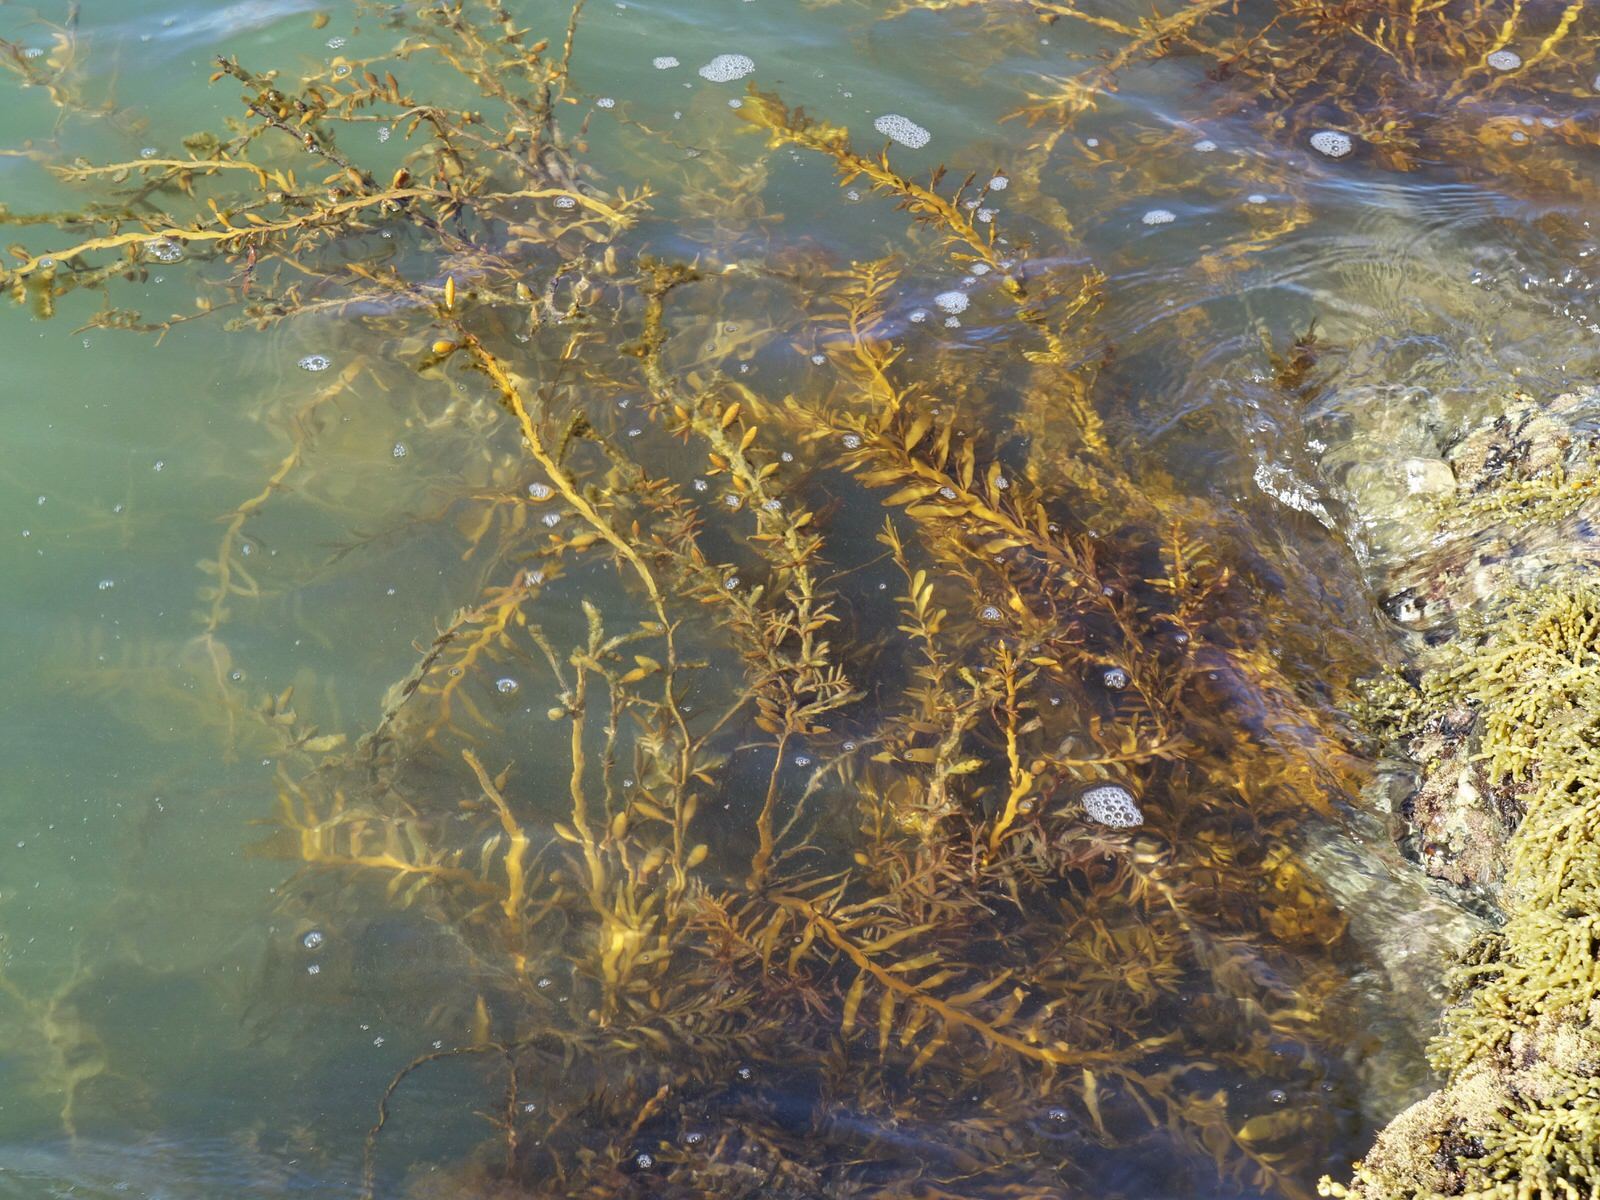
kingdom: Chromista
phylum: Ochrophyta
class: Phaeophyceae
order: Fucales
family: Sargassaceae
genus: Carpophyllum
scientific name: Carpophyllum maschalocarpum
